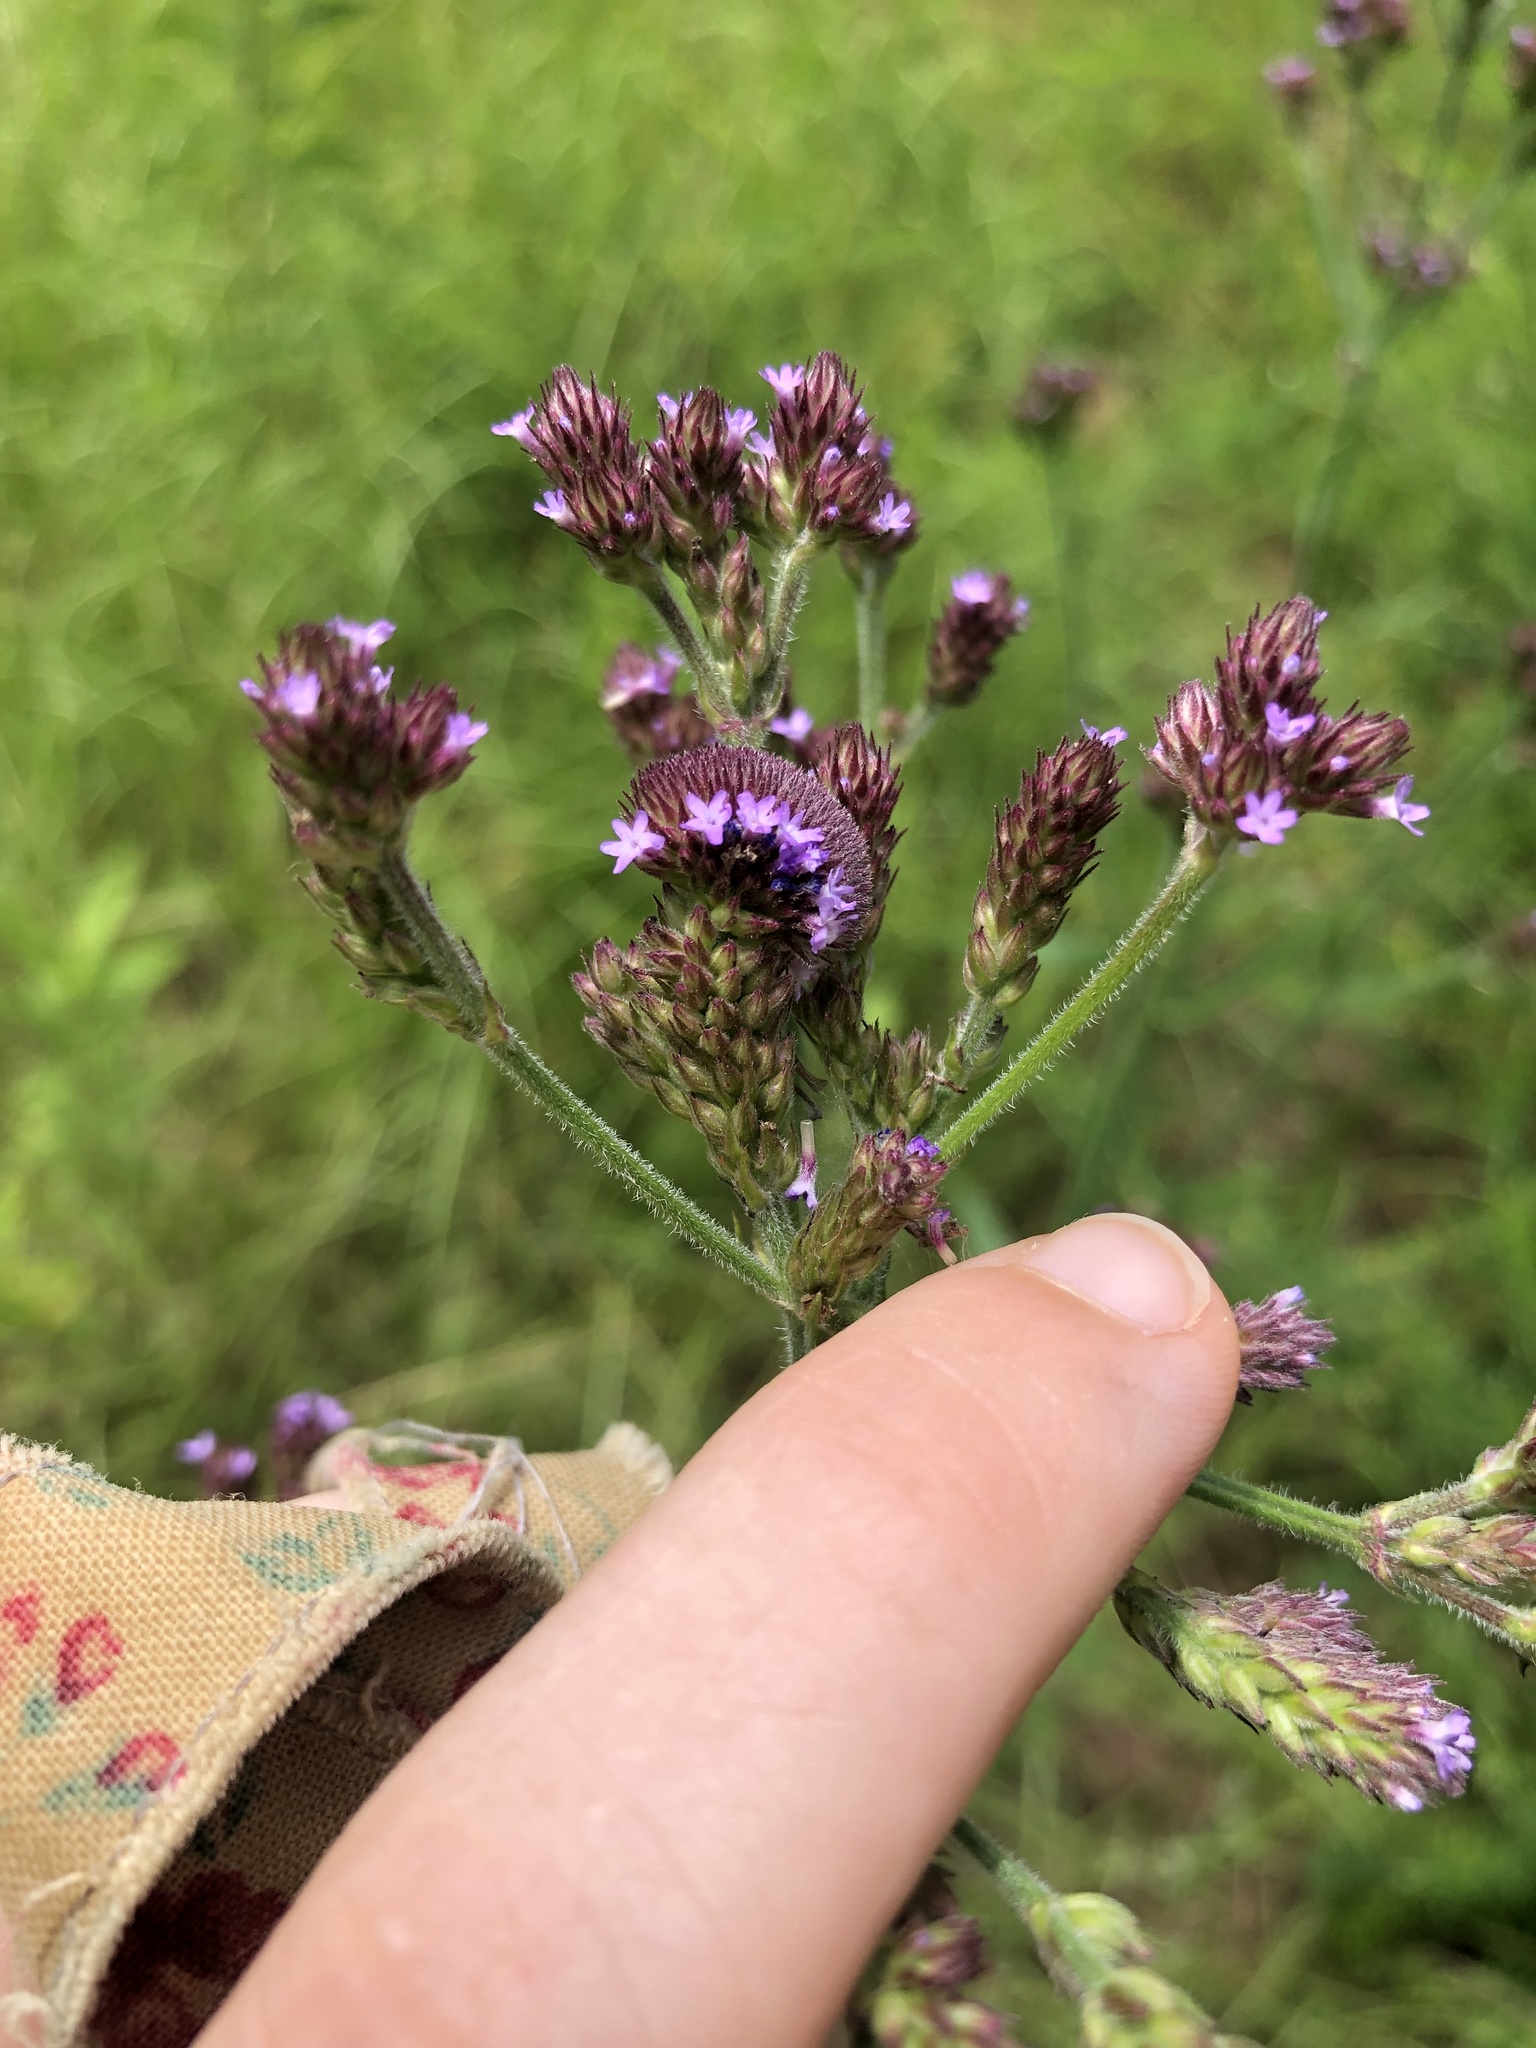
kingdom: Plantae
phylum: Tracheophyta
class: Magnoliopsida
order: Lamiales
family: Verbenaceae
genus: Verbena
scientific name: Verbena incompta
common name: Purpletop vervain
